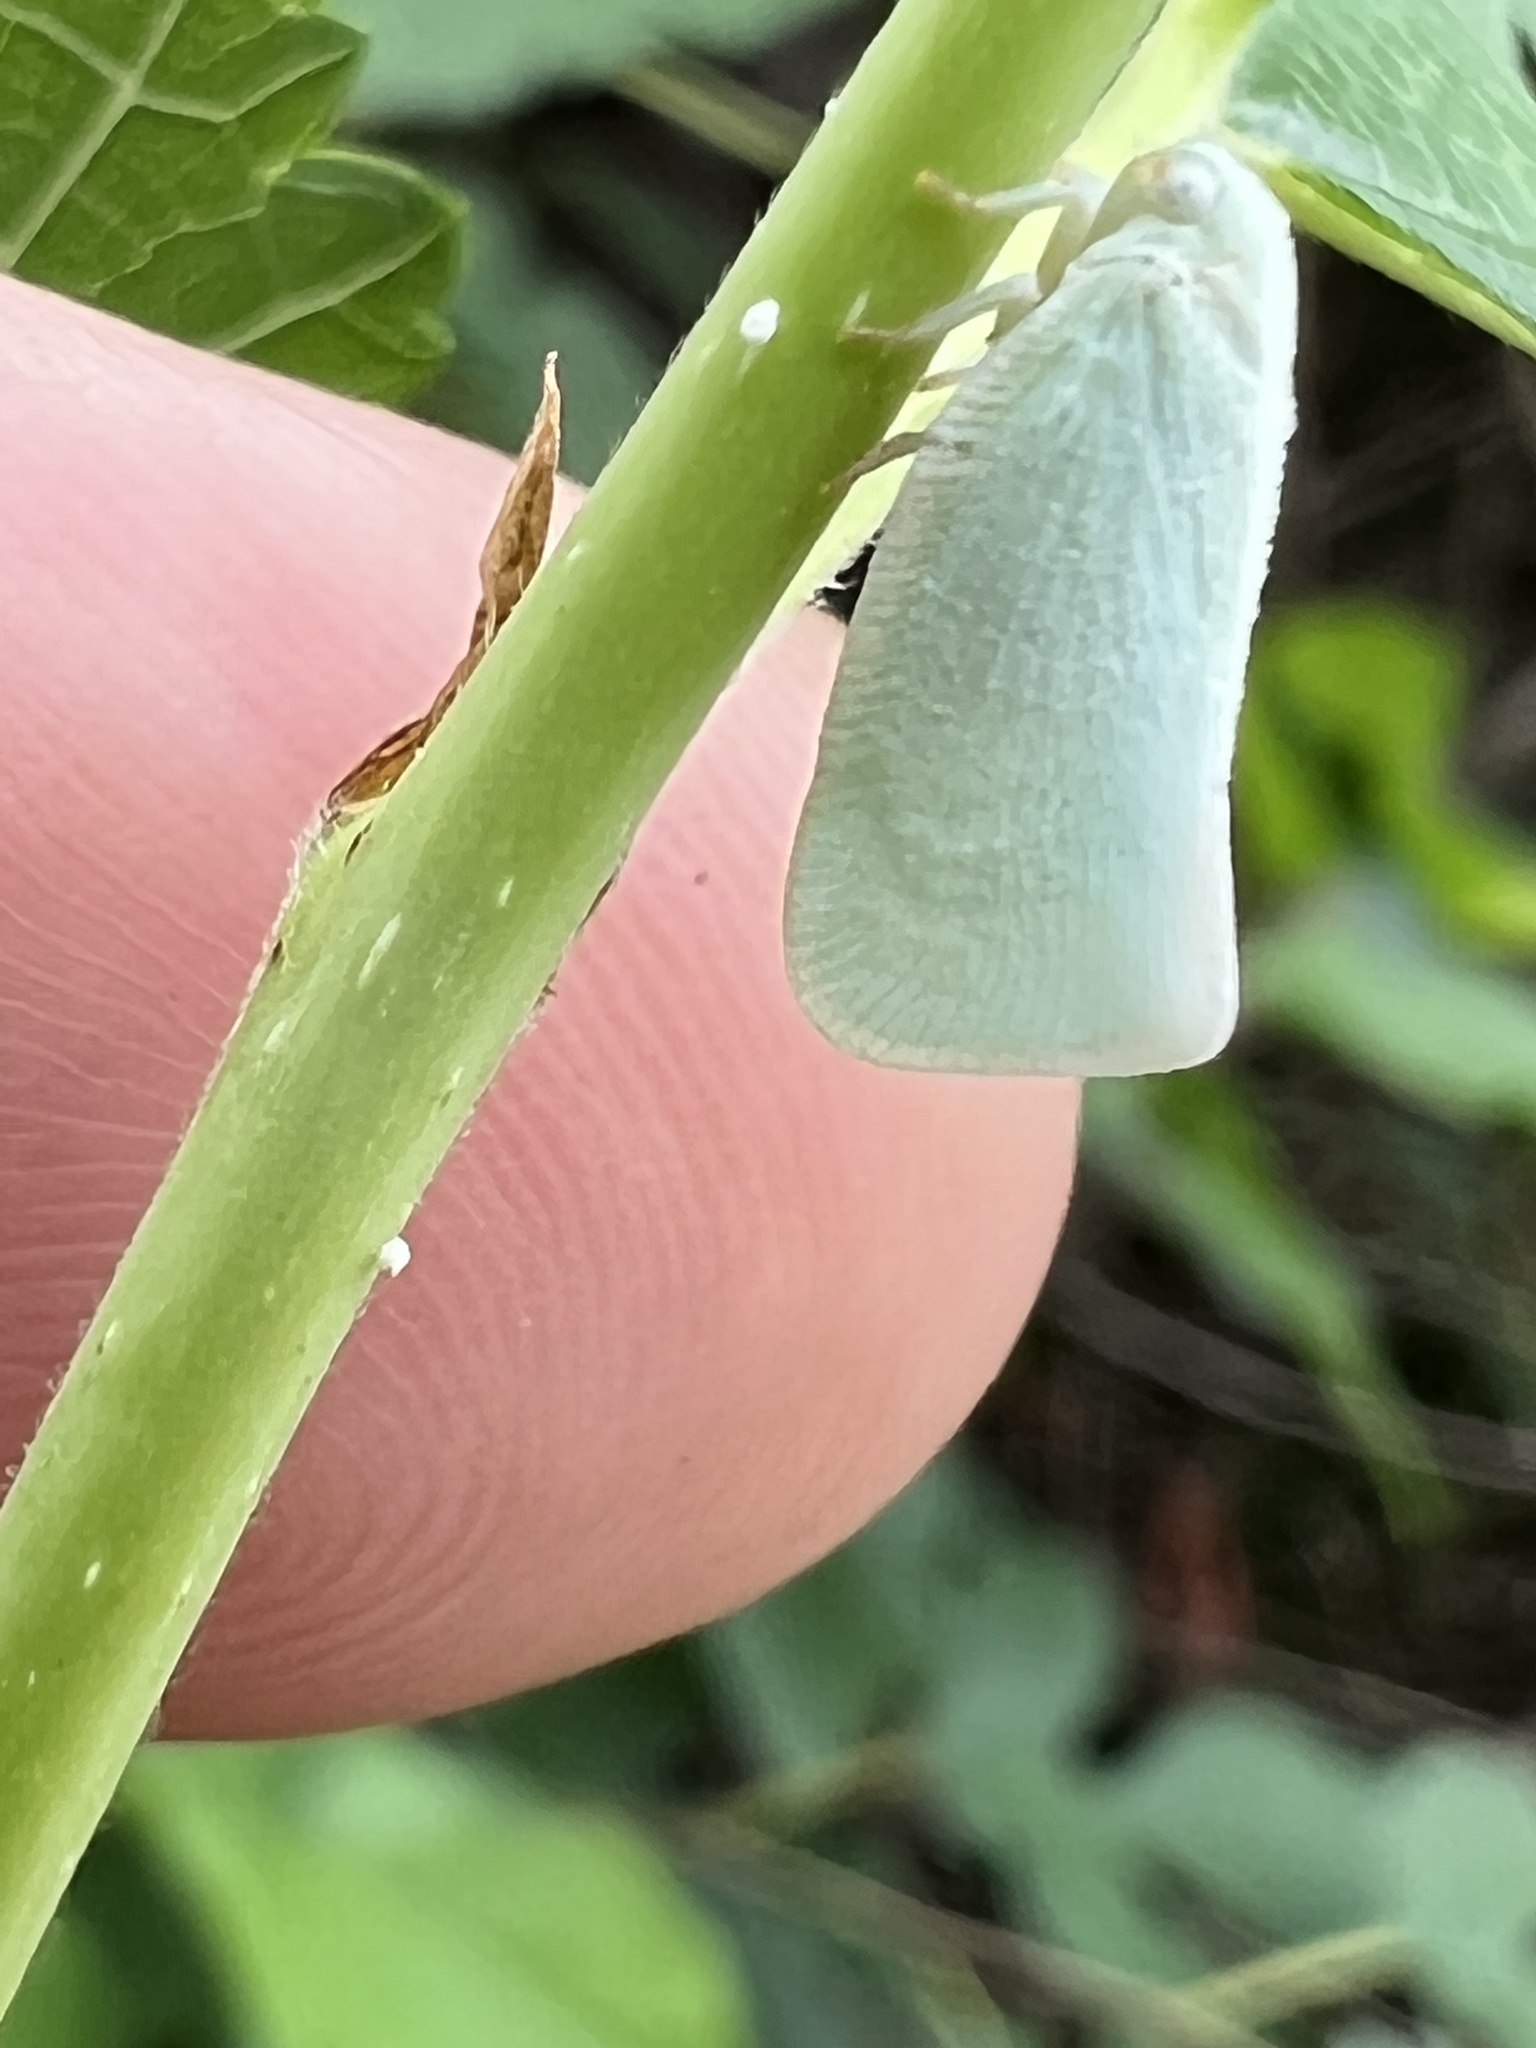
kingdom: Animalia
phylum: Arthropoda
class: Insecta
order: Hemiptera
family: Flatidae
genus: Flatormenis
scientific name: Flatormenis proxima
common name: Northern flatid planthopper
